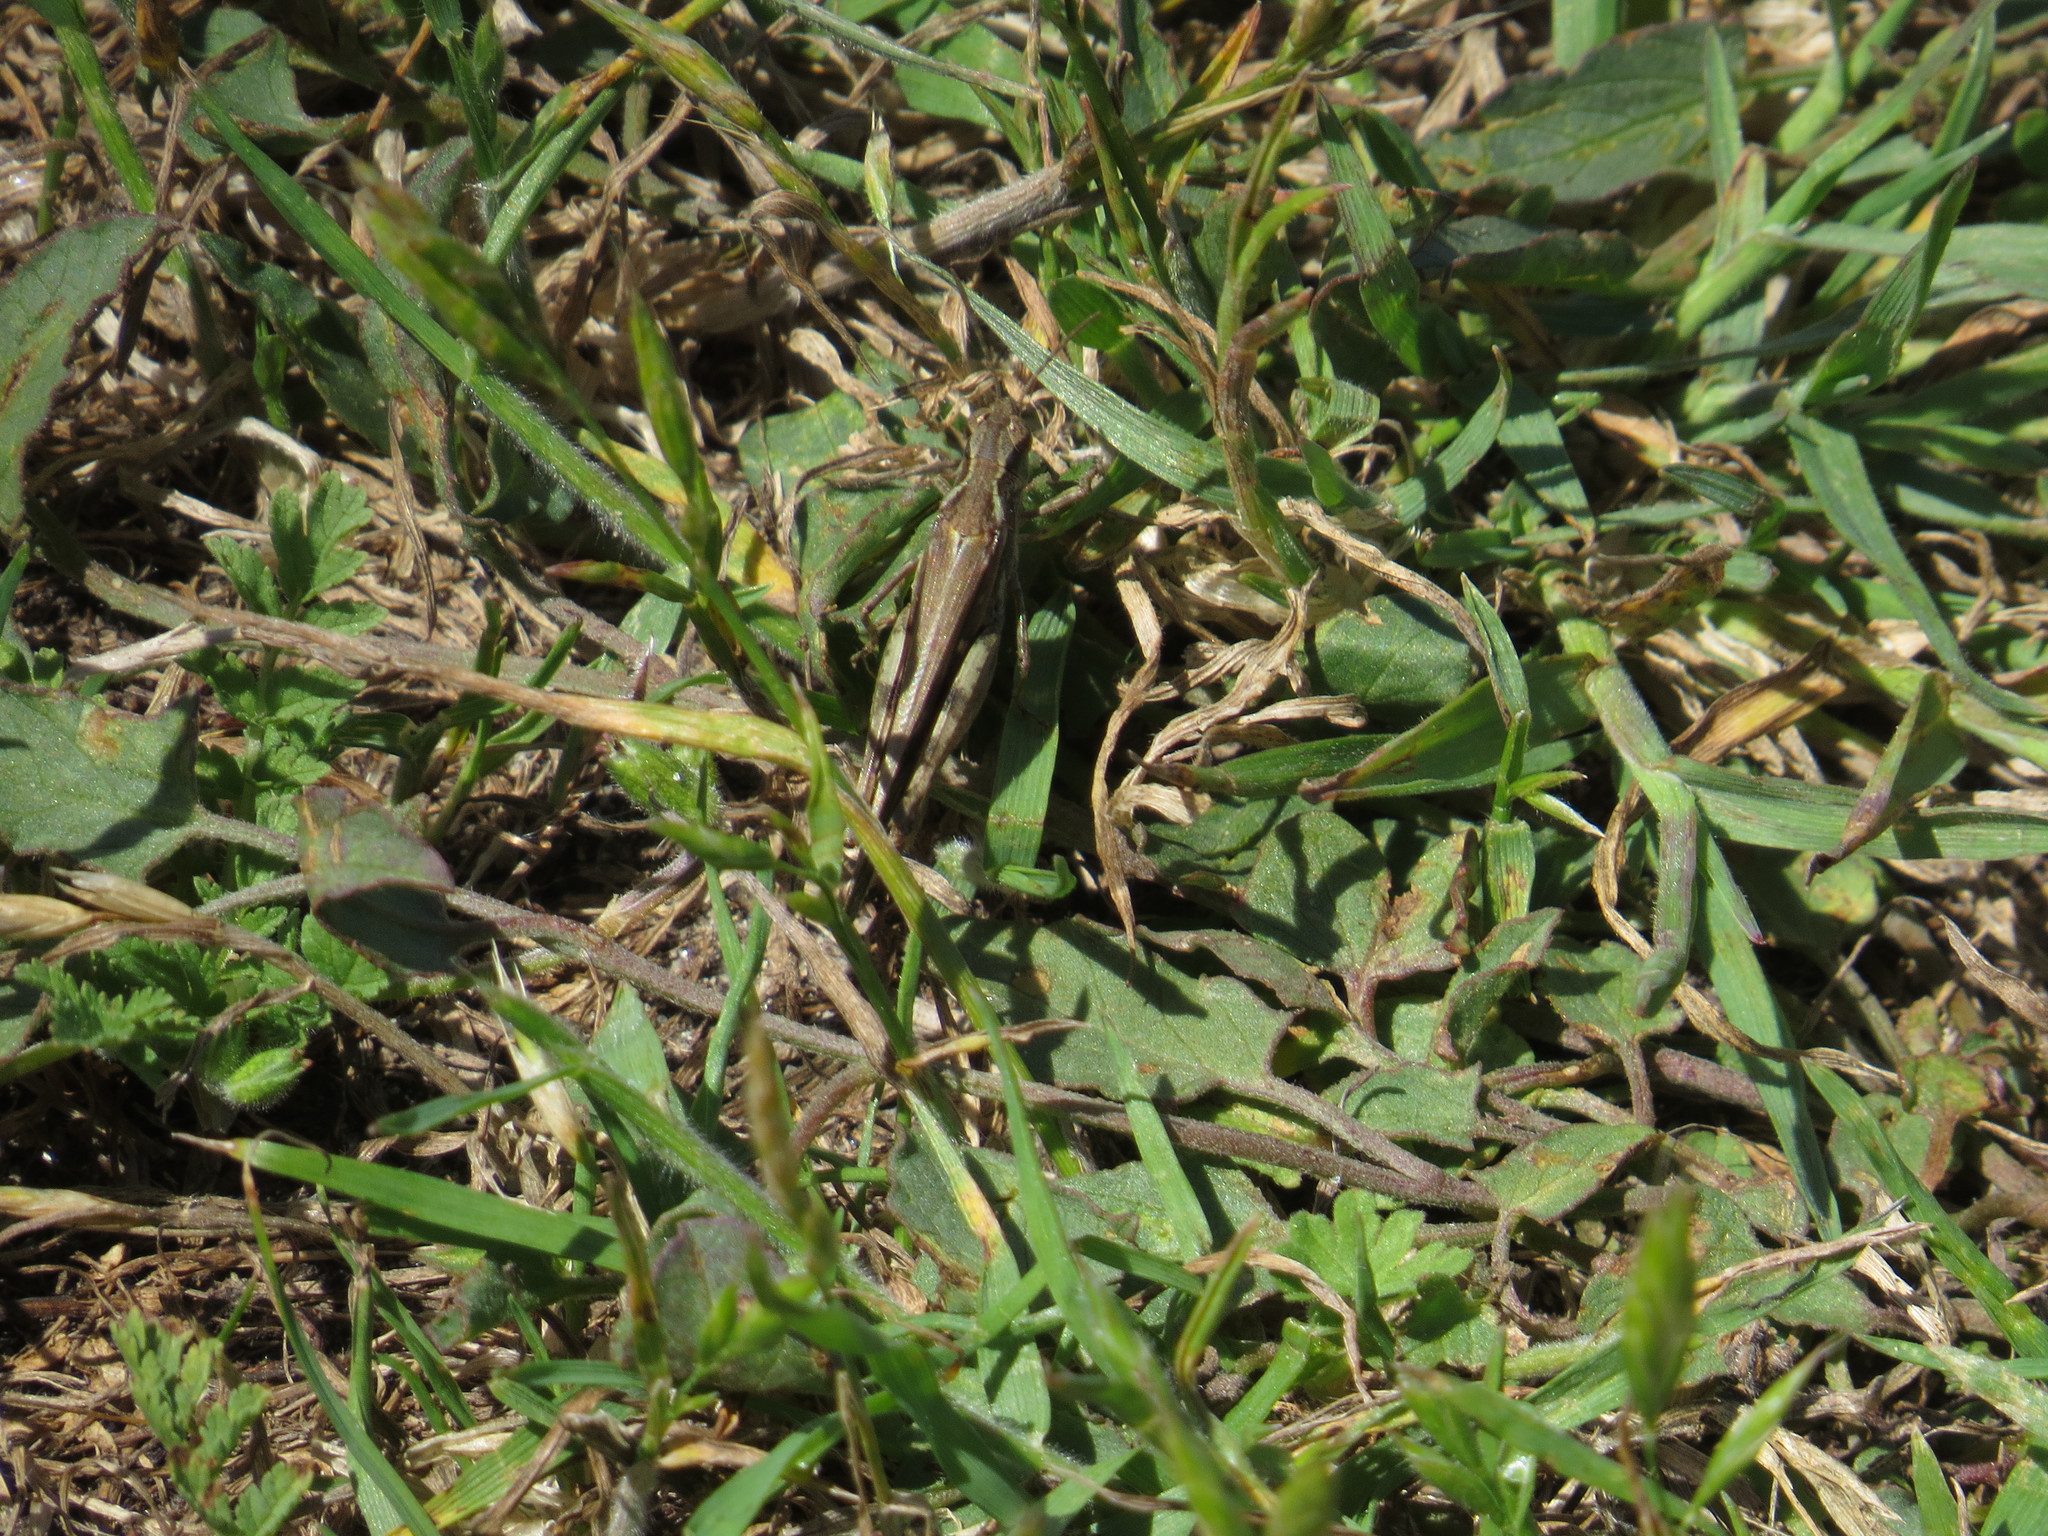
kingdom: Animalia
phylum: Arthropoda
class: Insecta
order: Orthoptera
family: Acrididae
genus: Aiolopus
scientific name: Aiolopus puissanti
